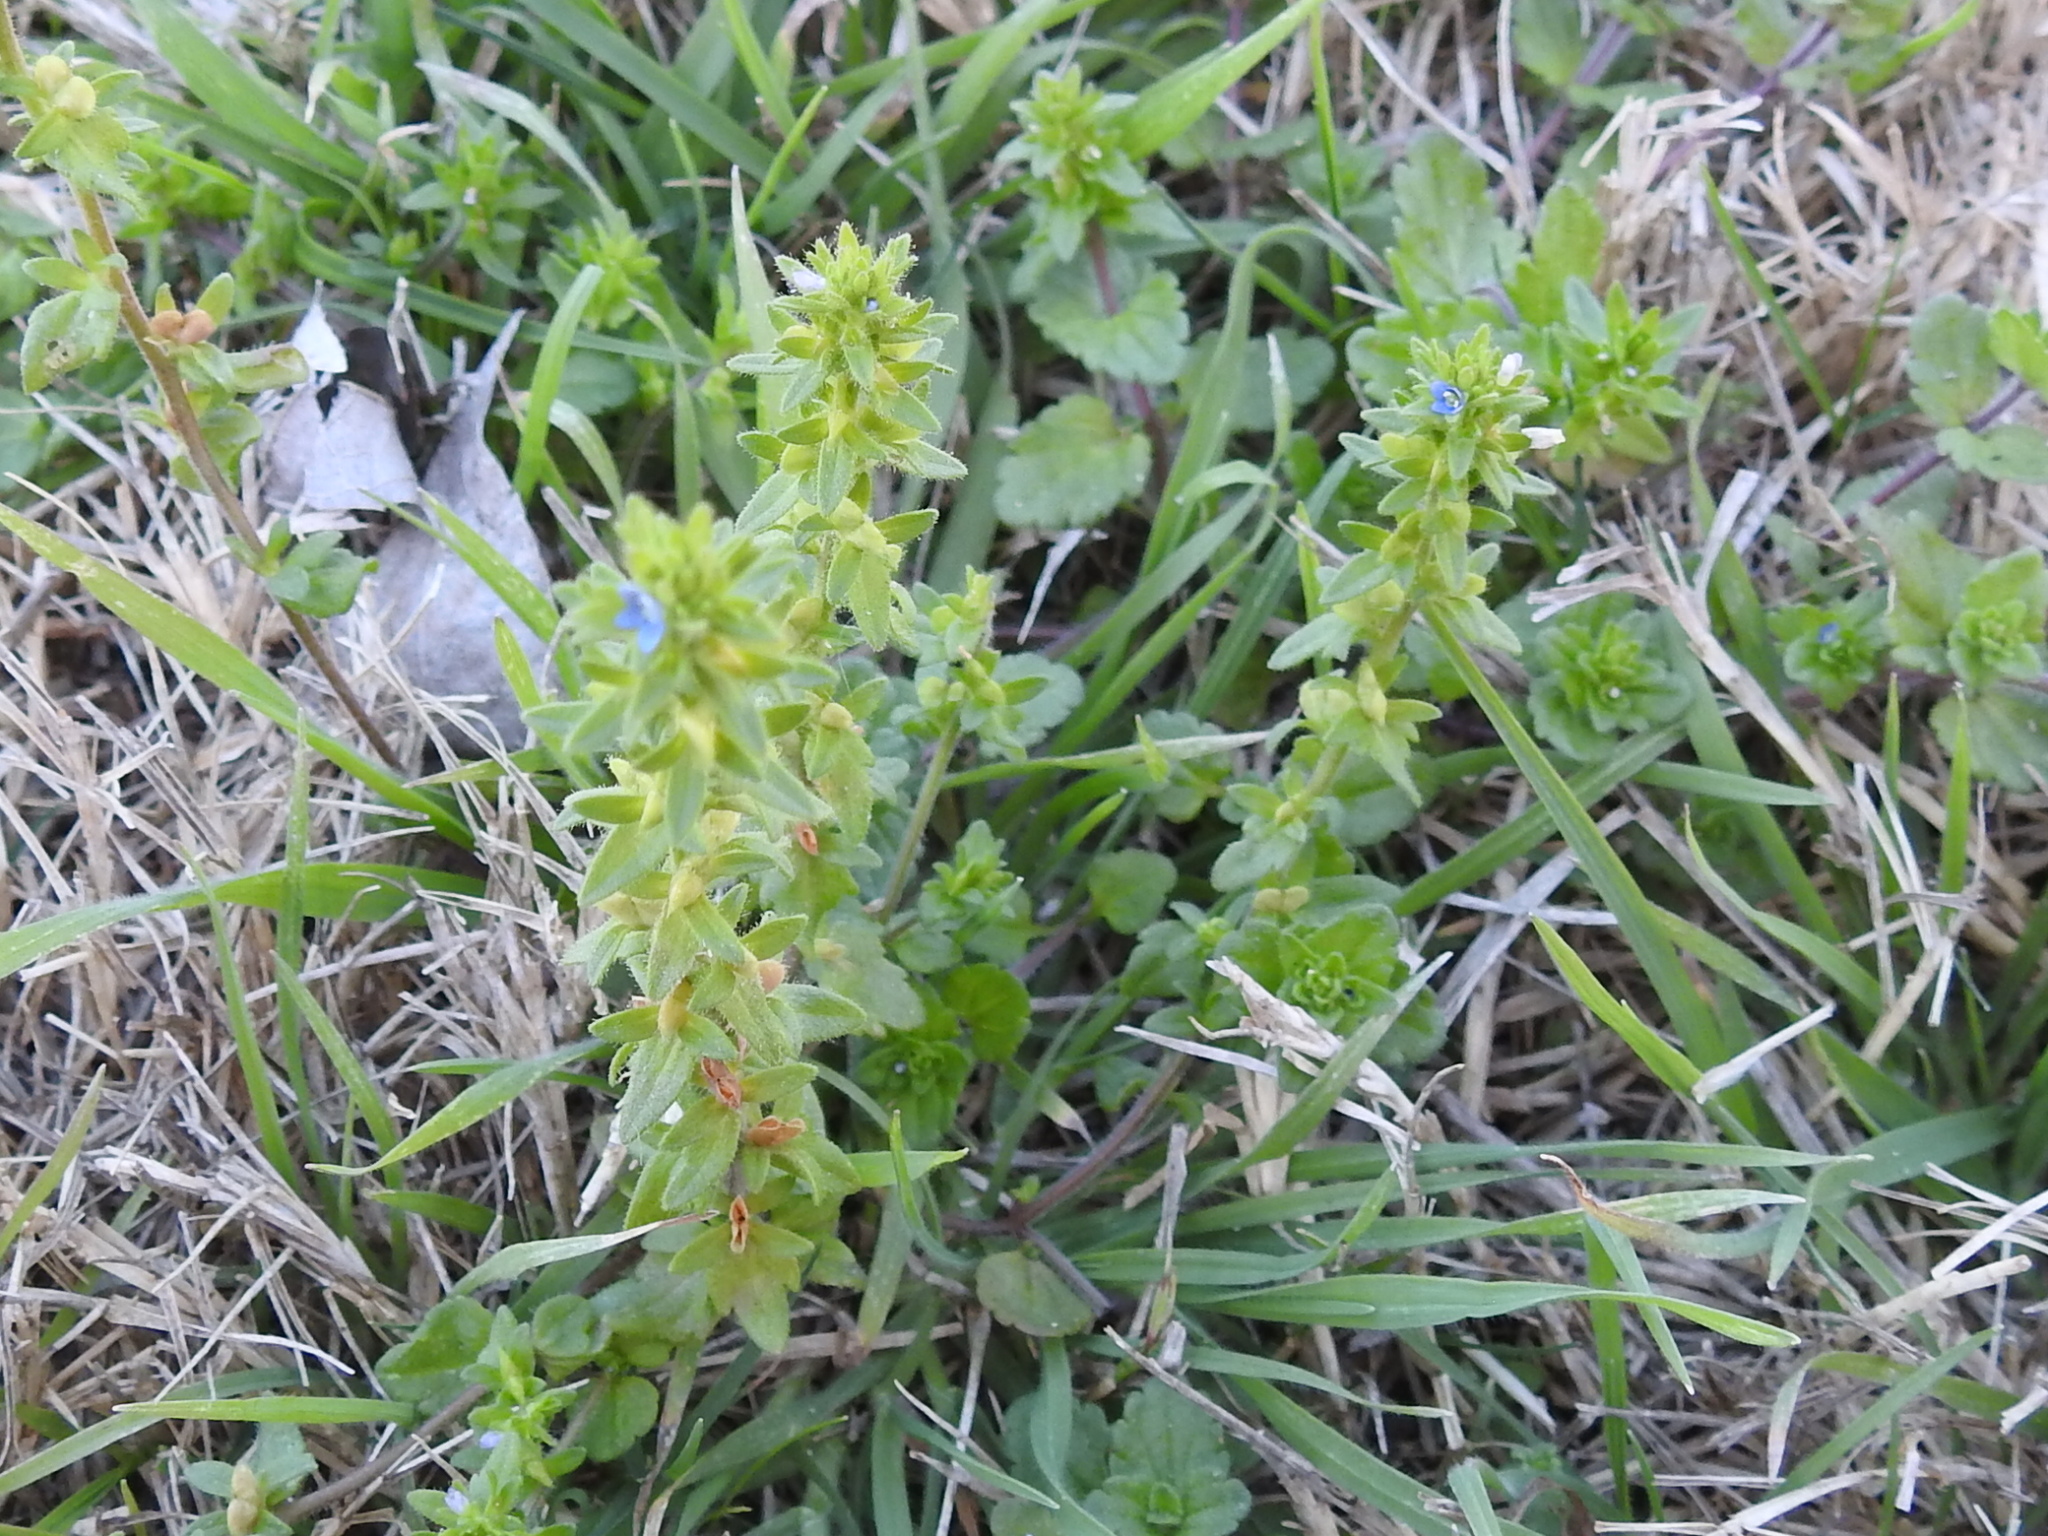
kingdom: Plantae
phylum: Tracheophyta
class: Magnoliopsida
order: Lamiales
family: Plantaginaceae
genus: Veronica
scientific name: Veronica arvensis
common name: Corn speedwell
